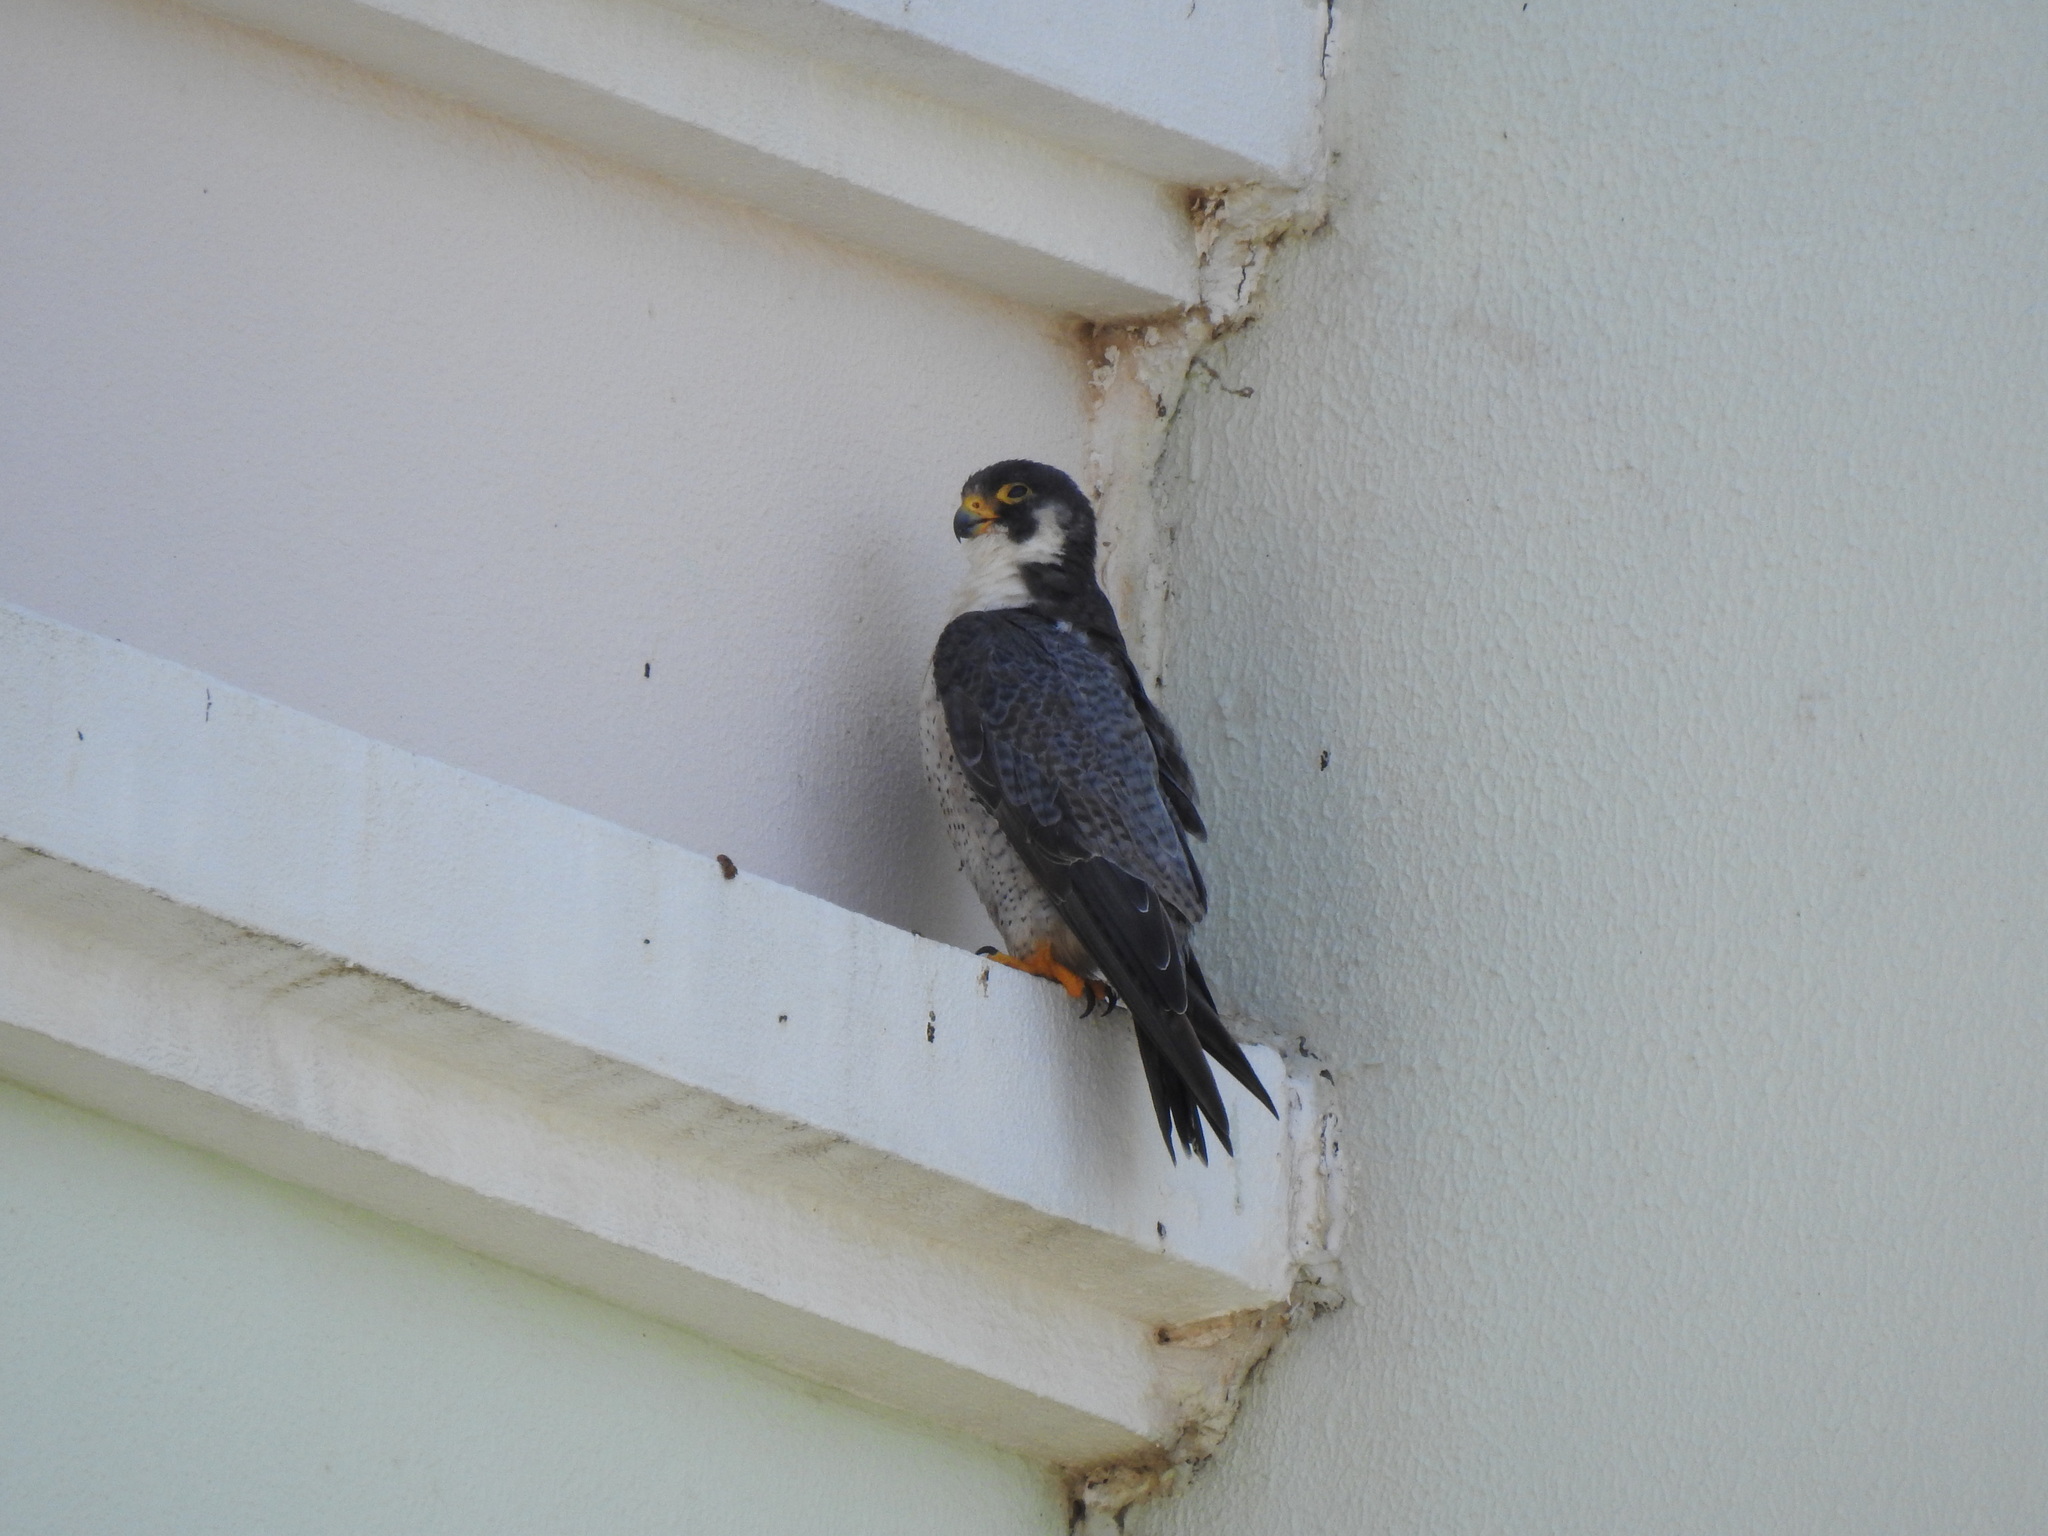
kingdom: Animalia
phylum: Chordata
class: Aves
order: Falconiformes
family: Falconidae
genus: Falco
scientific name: Falco peregrinus
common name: Peregrine falcon
